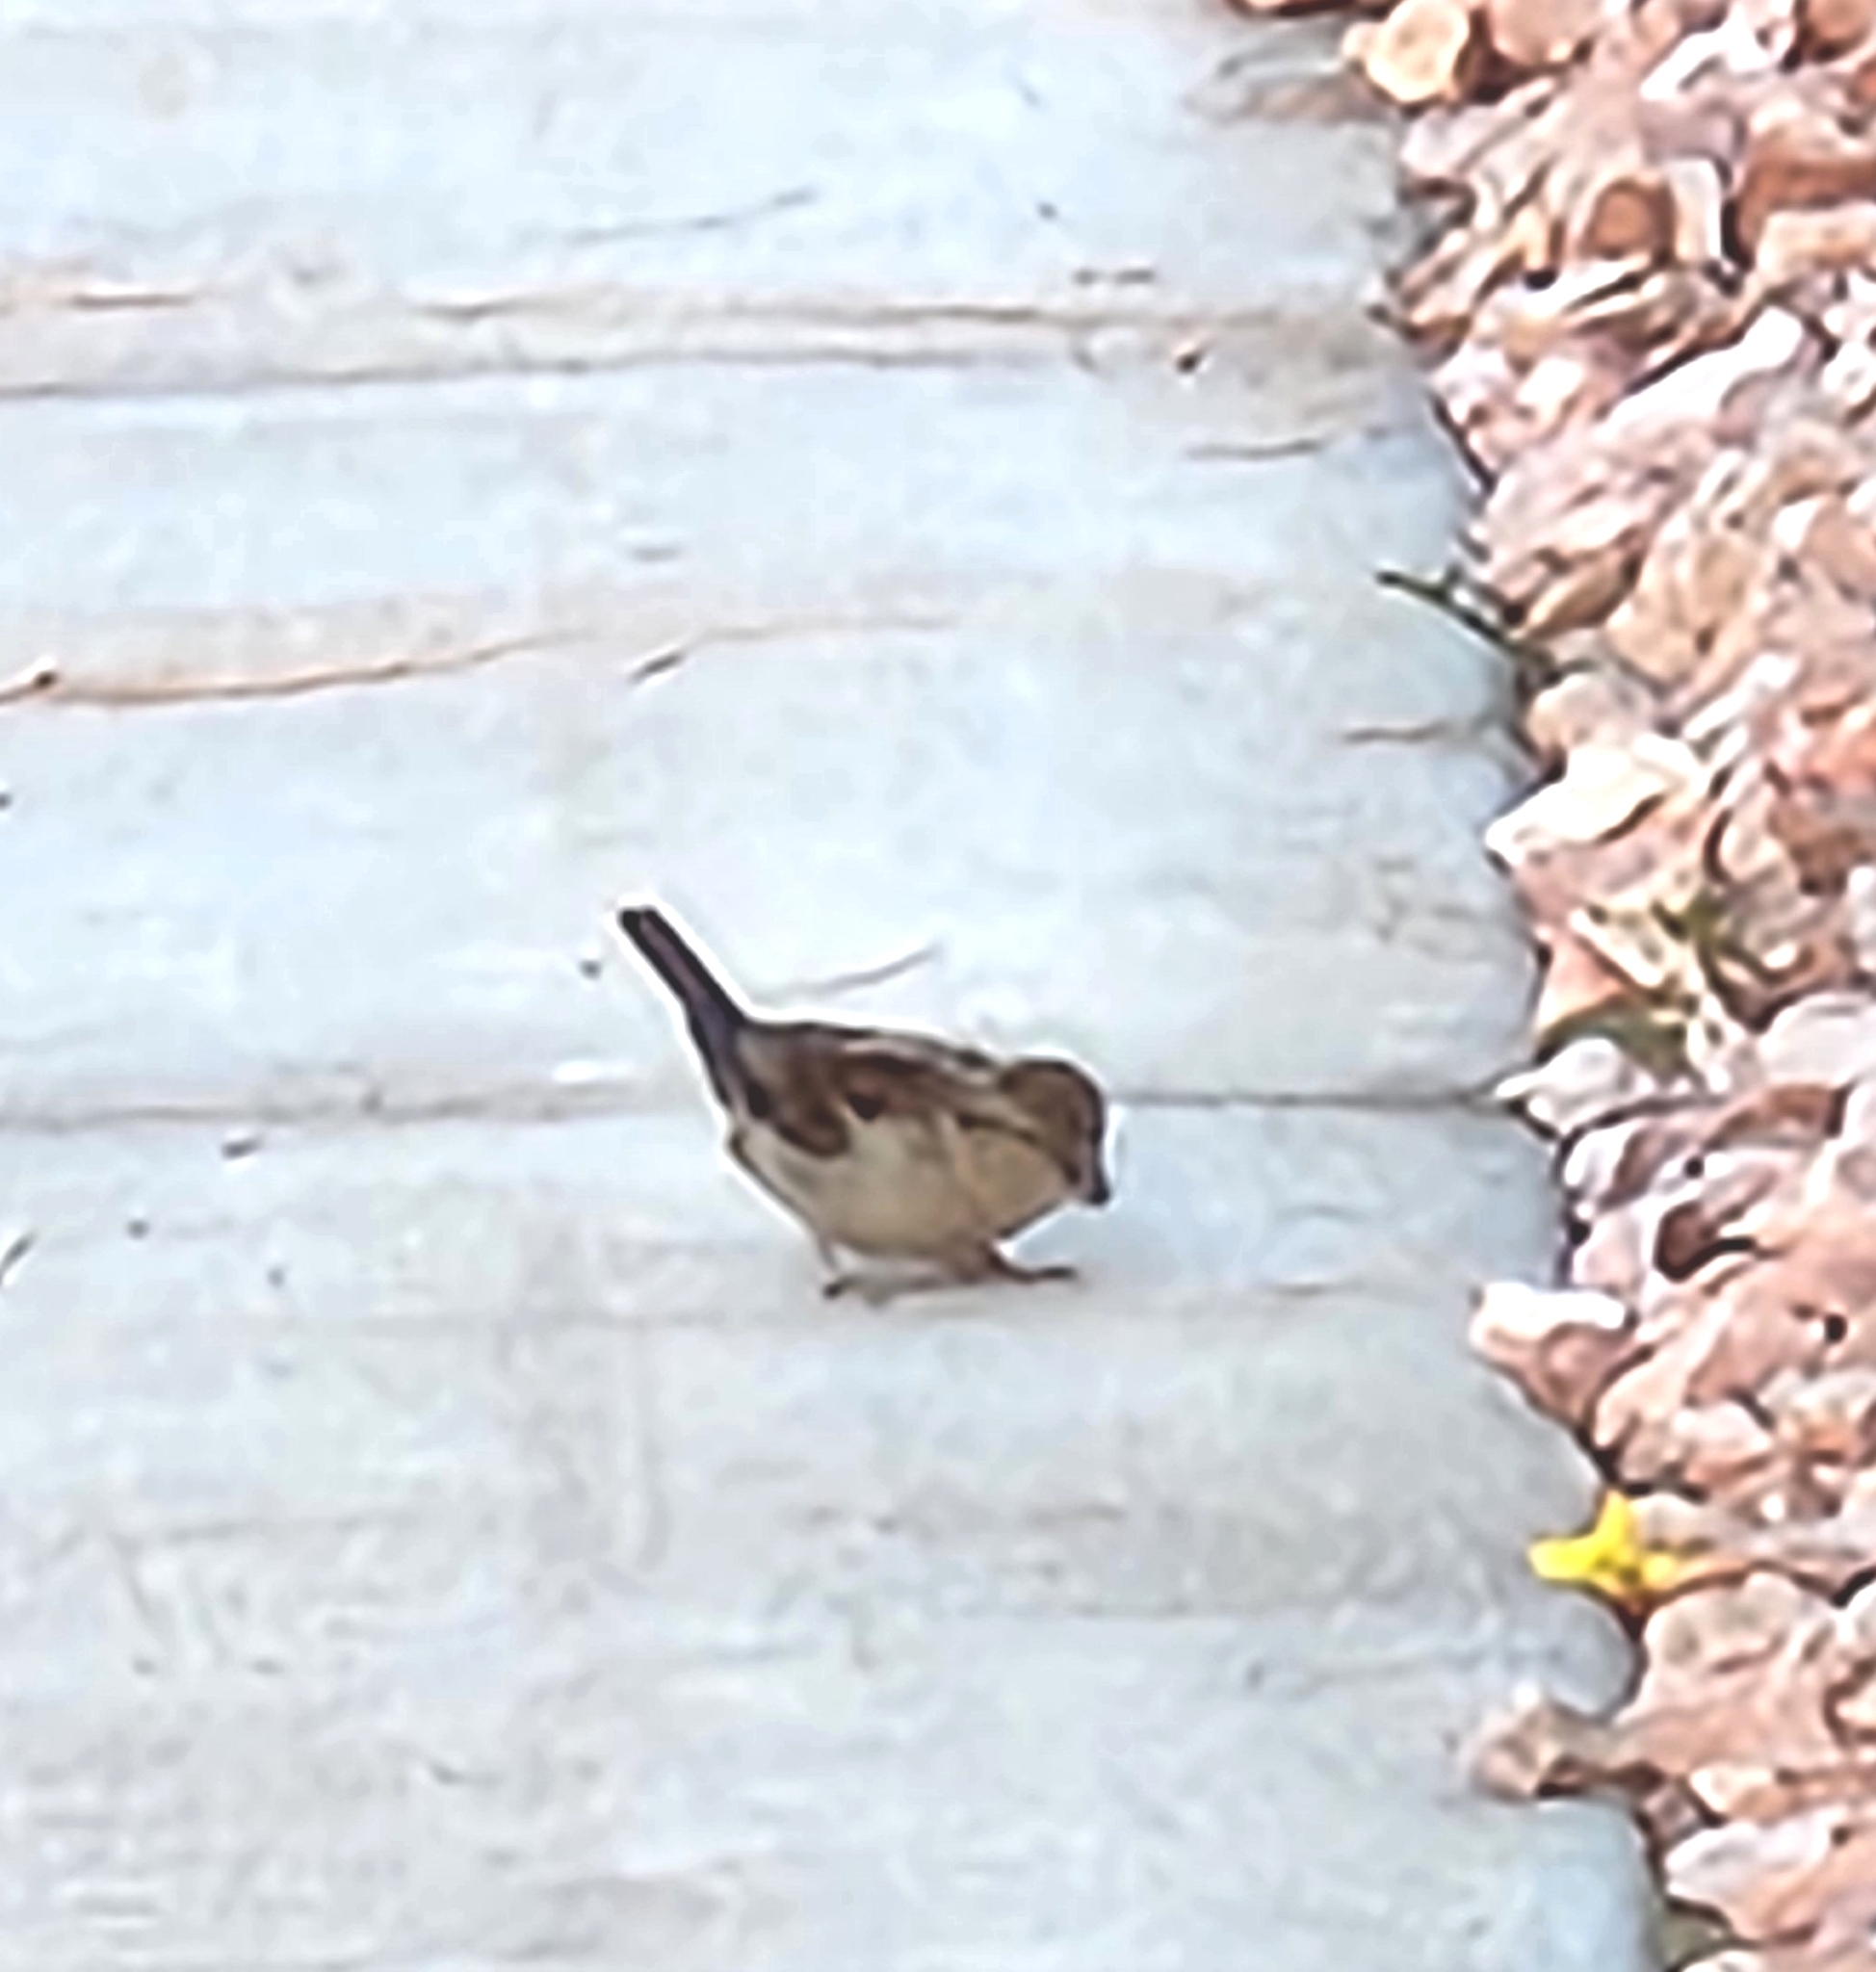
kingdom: Animalia
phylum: Chordata
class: Aves
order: Passeriformes
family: Passeridae
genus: Passer
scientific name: Passer domesticus
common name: House sparrow
